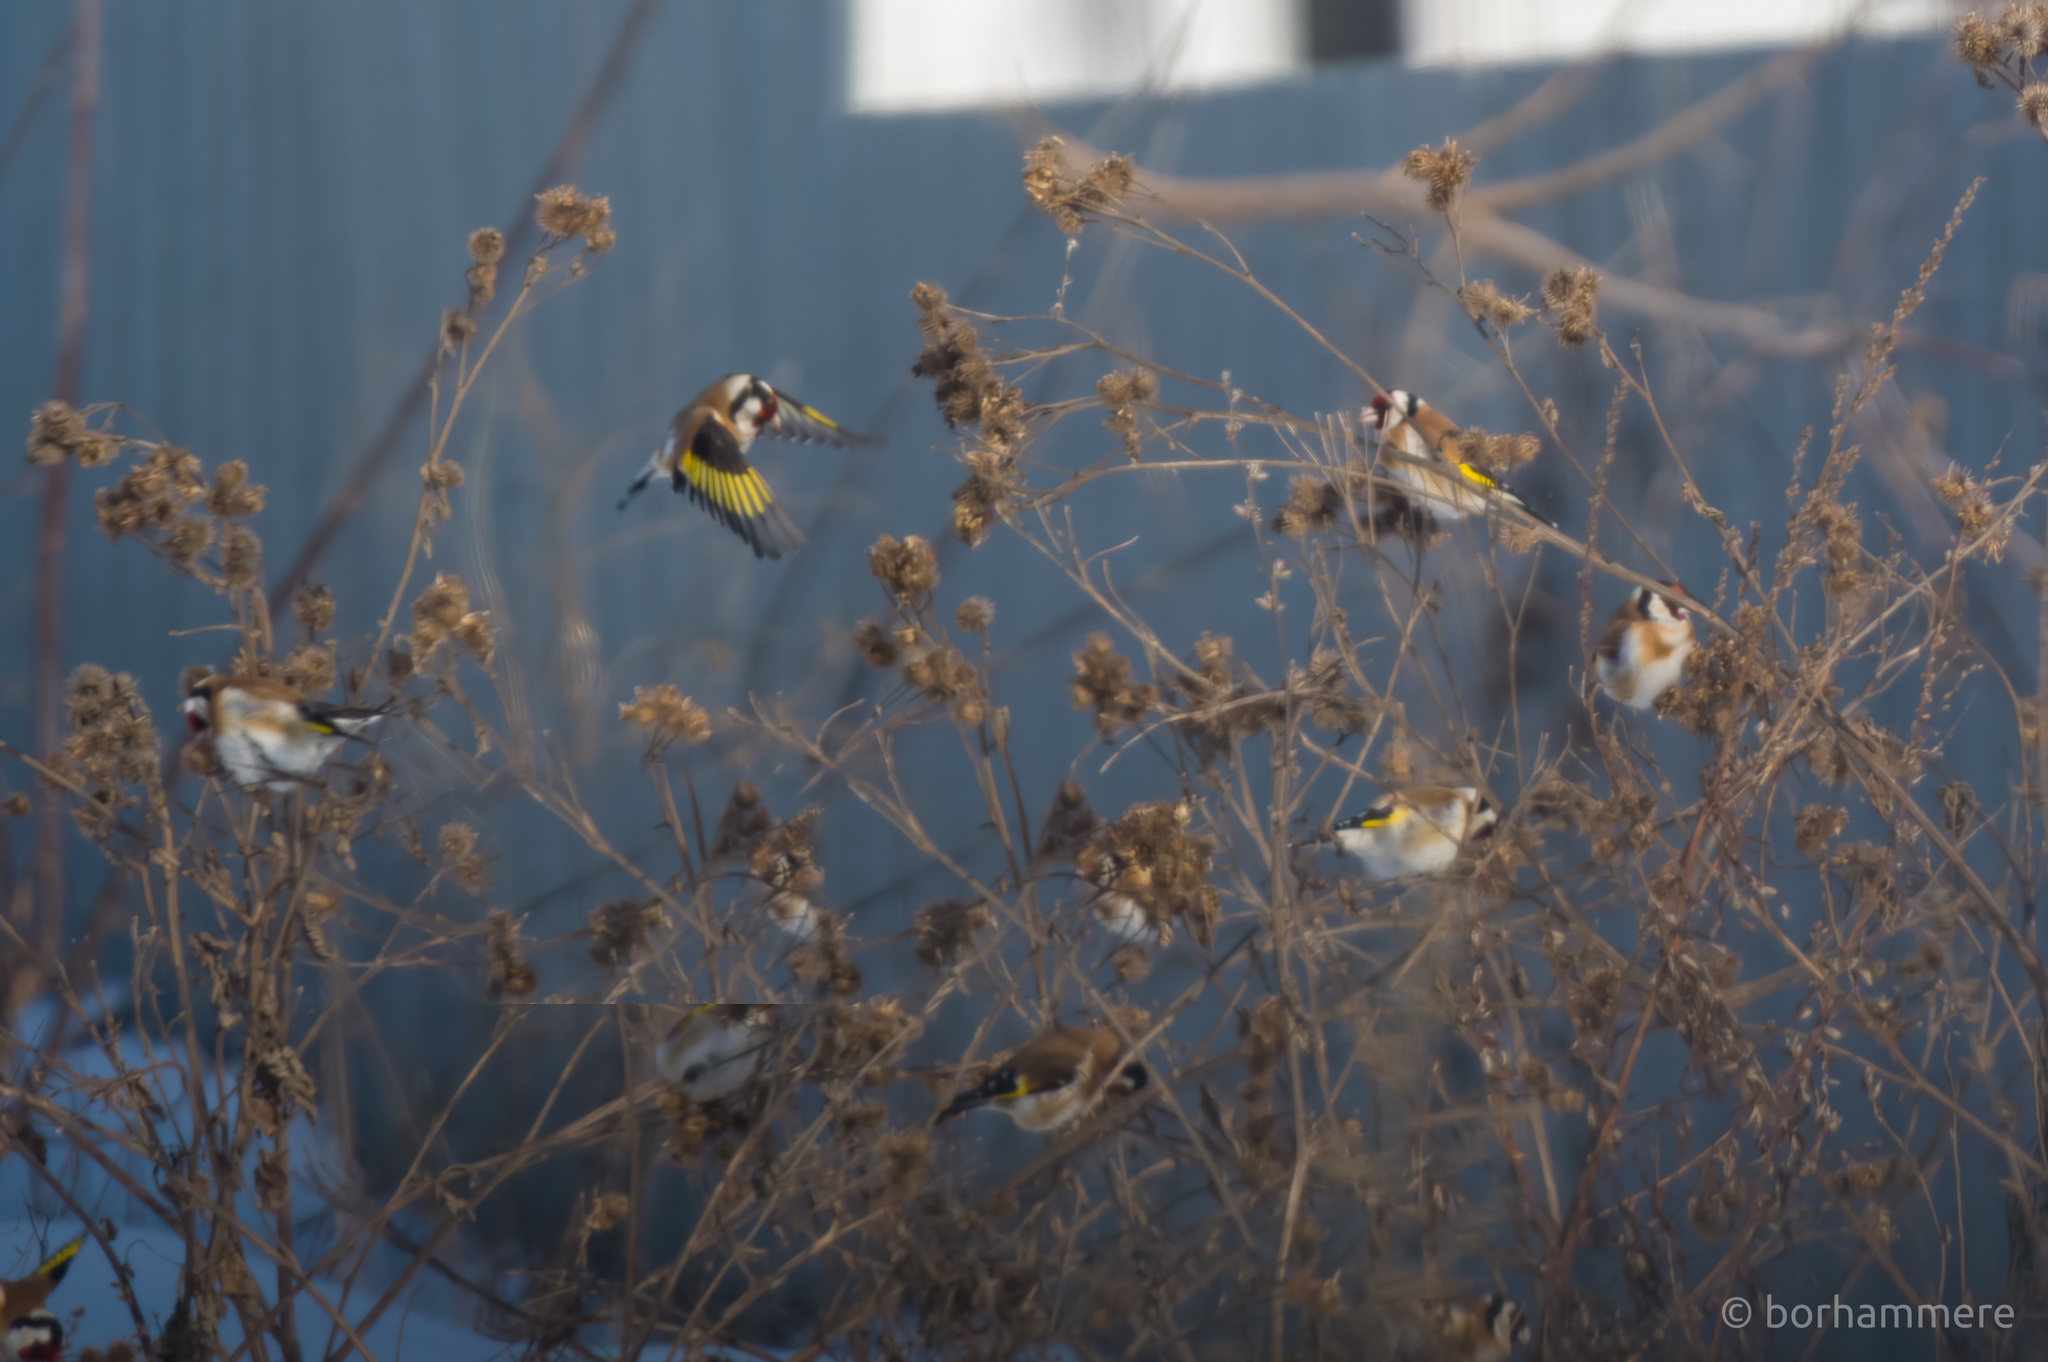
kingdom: Animalia
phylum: Chordata
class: Aves
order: Passeriformes
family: Fringillidae
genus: Carduelis
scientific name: Carduelis carduelis
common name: European goldfinch
